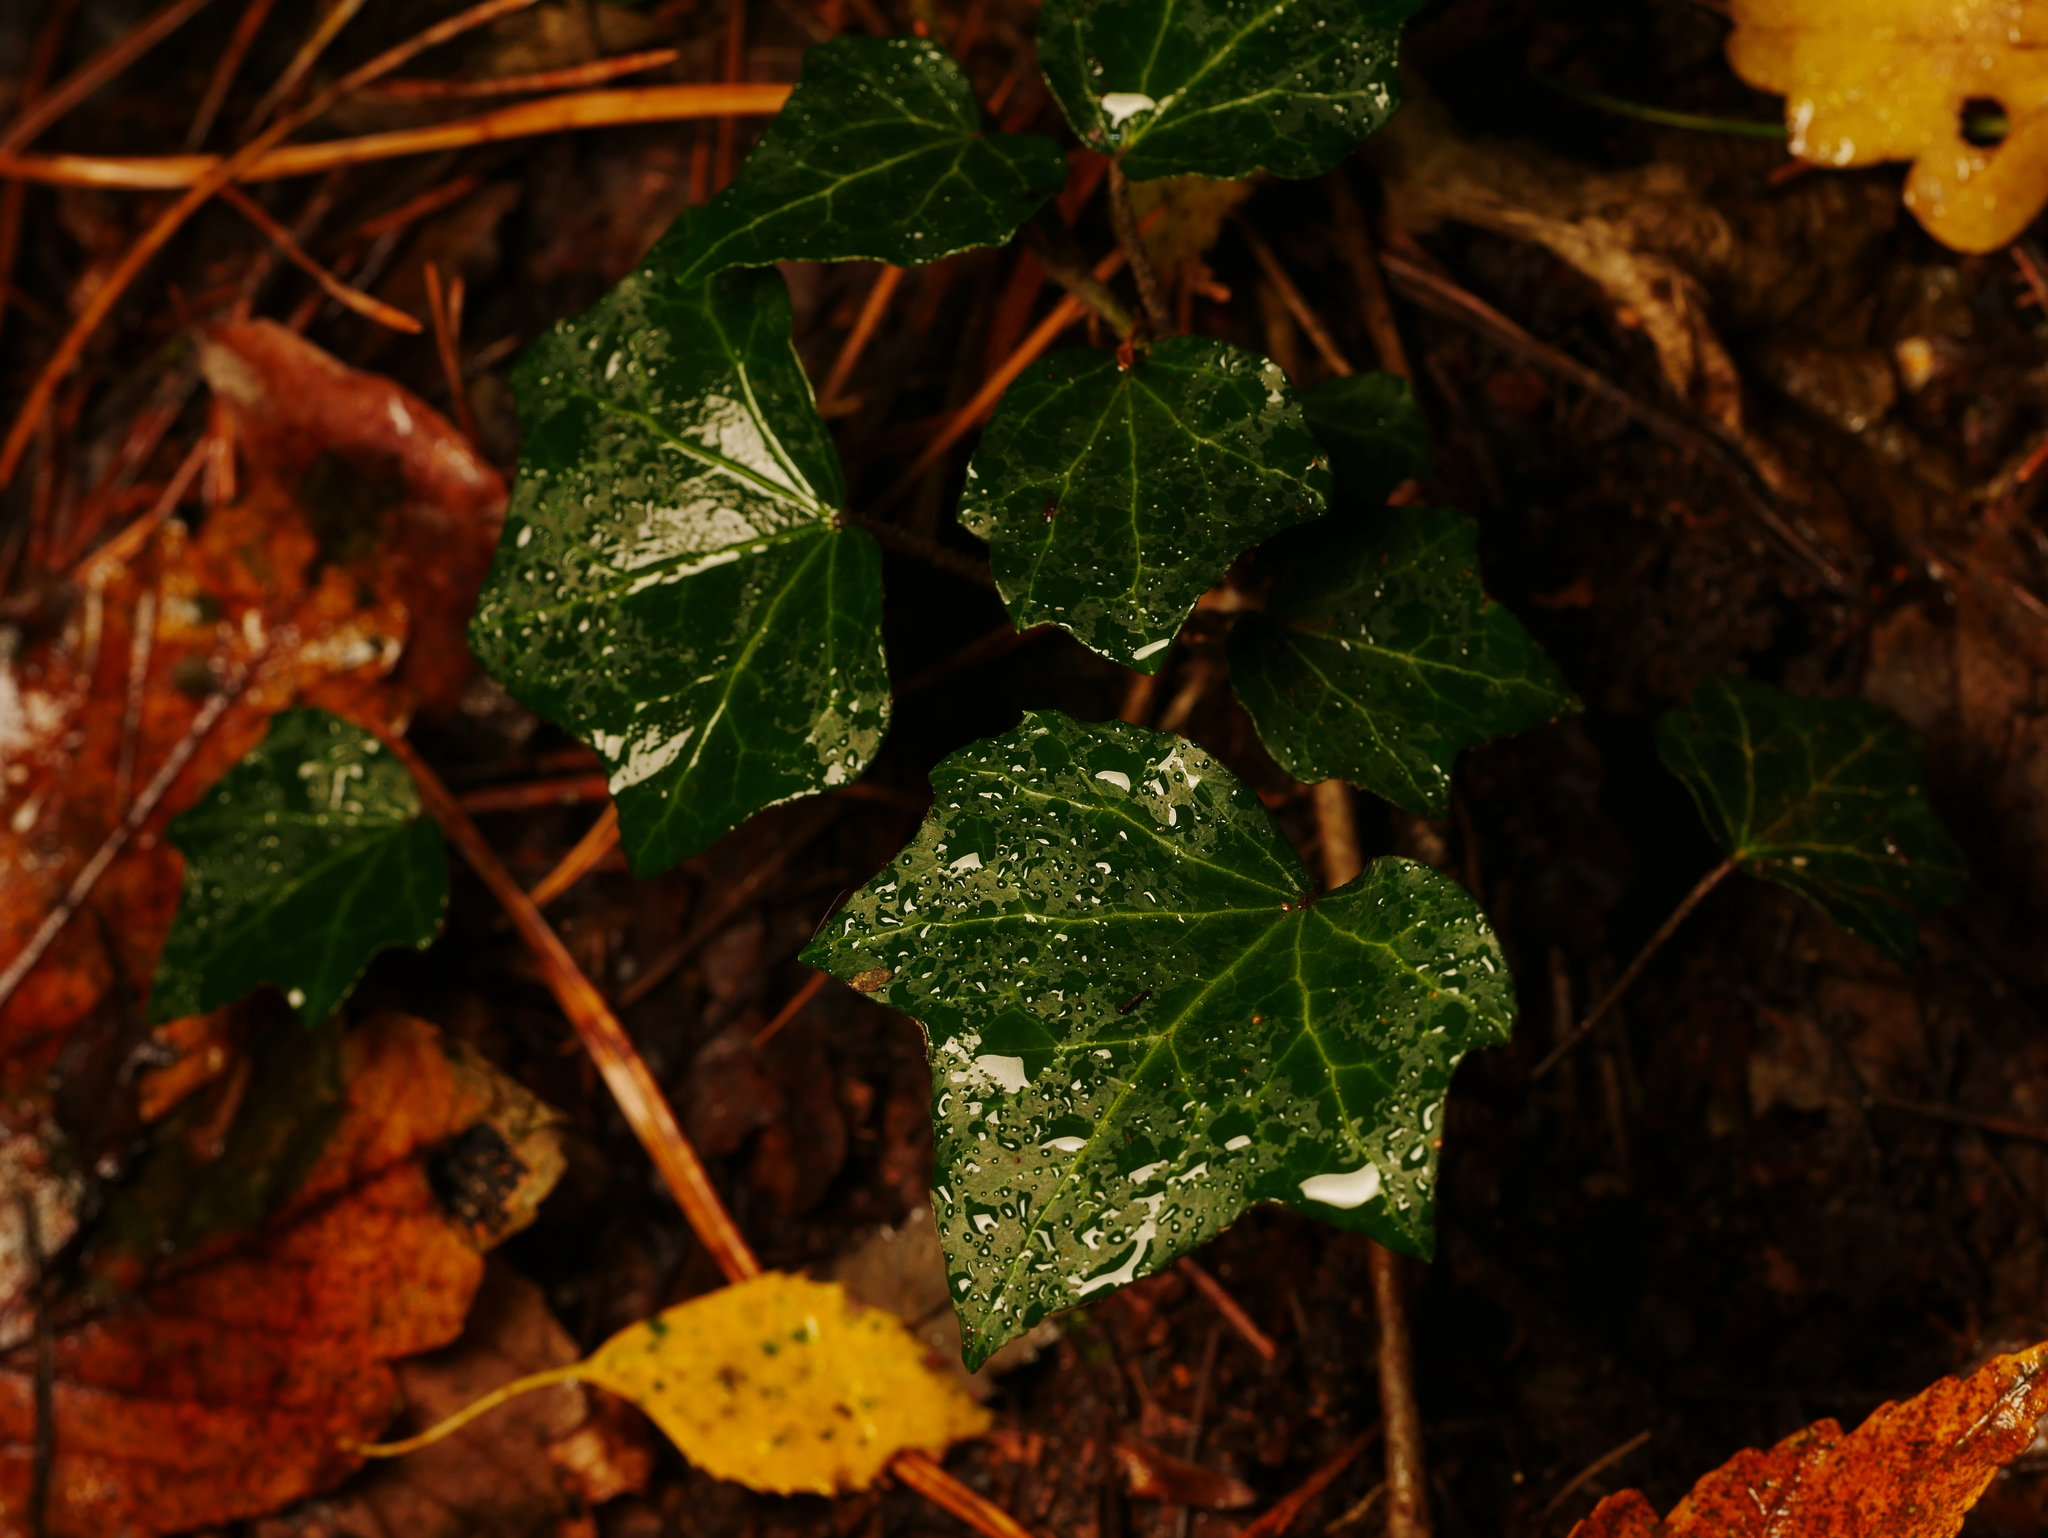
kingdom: Plantae
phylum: Tracheophyta
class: Magnoliopsida
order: Apiales
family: Araliaceae
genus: Hedera
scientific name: Hedera helix
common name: Ivy
